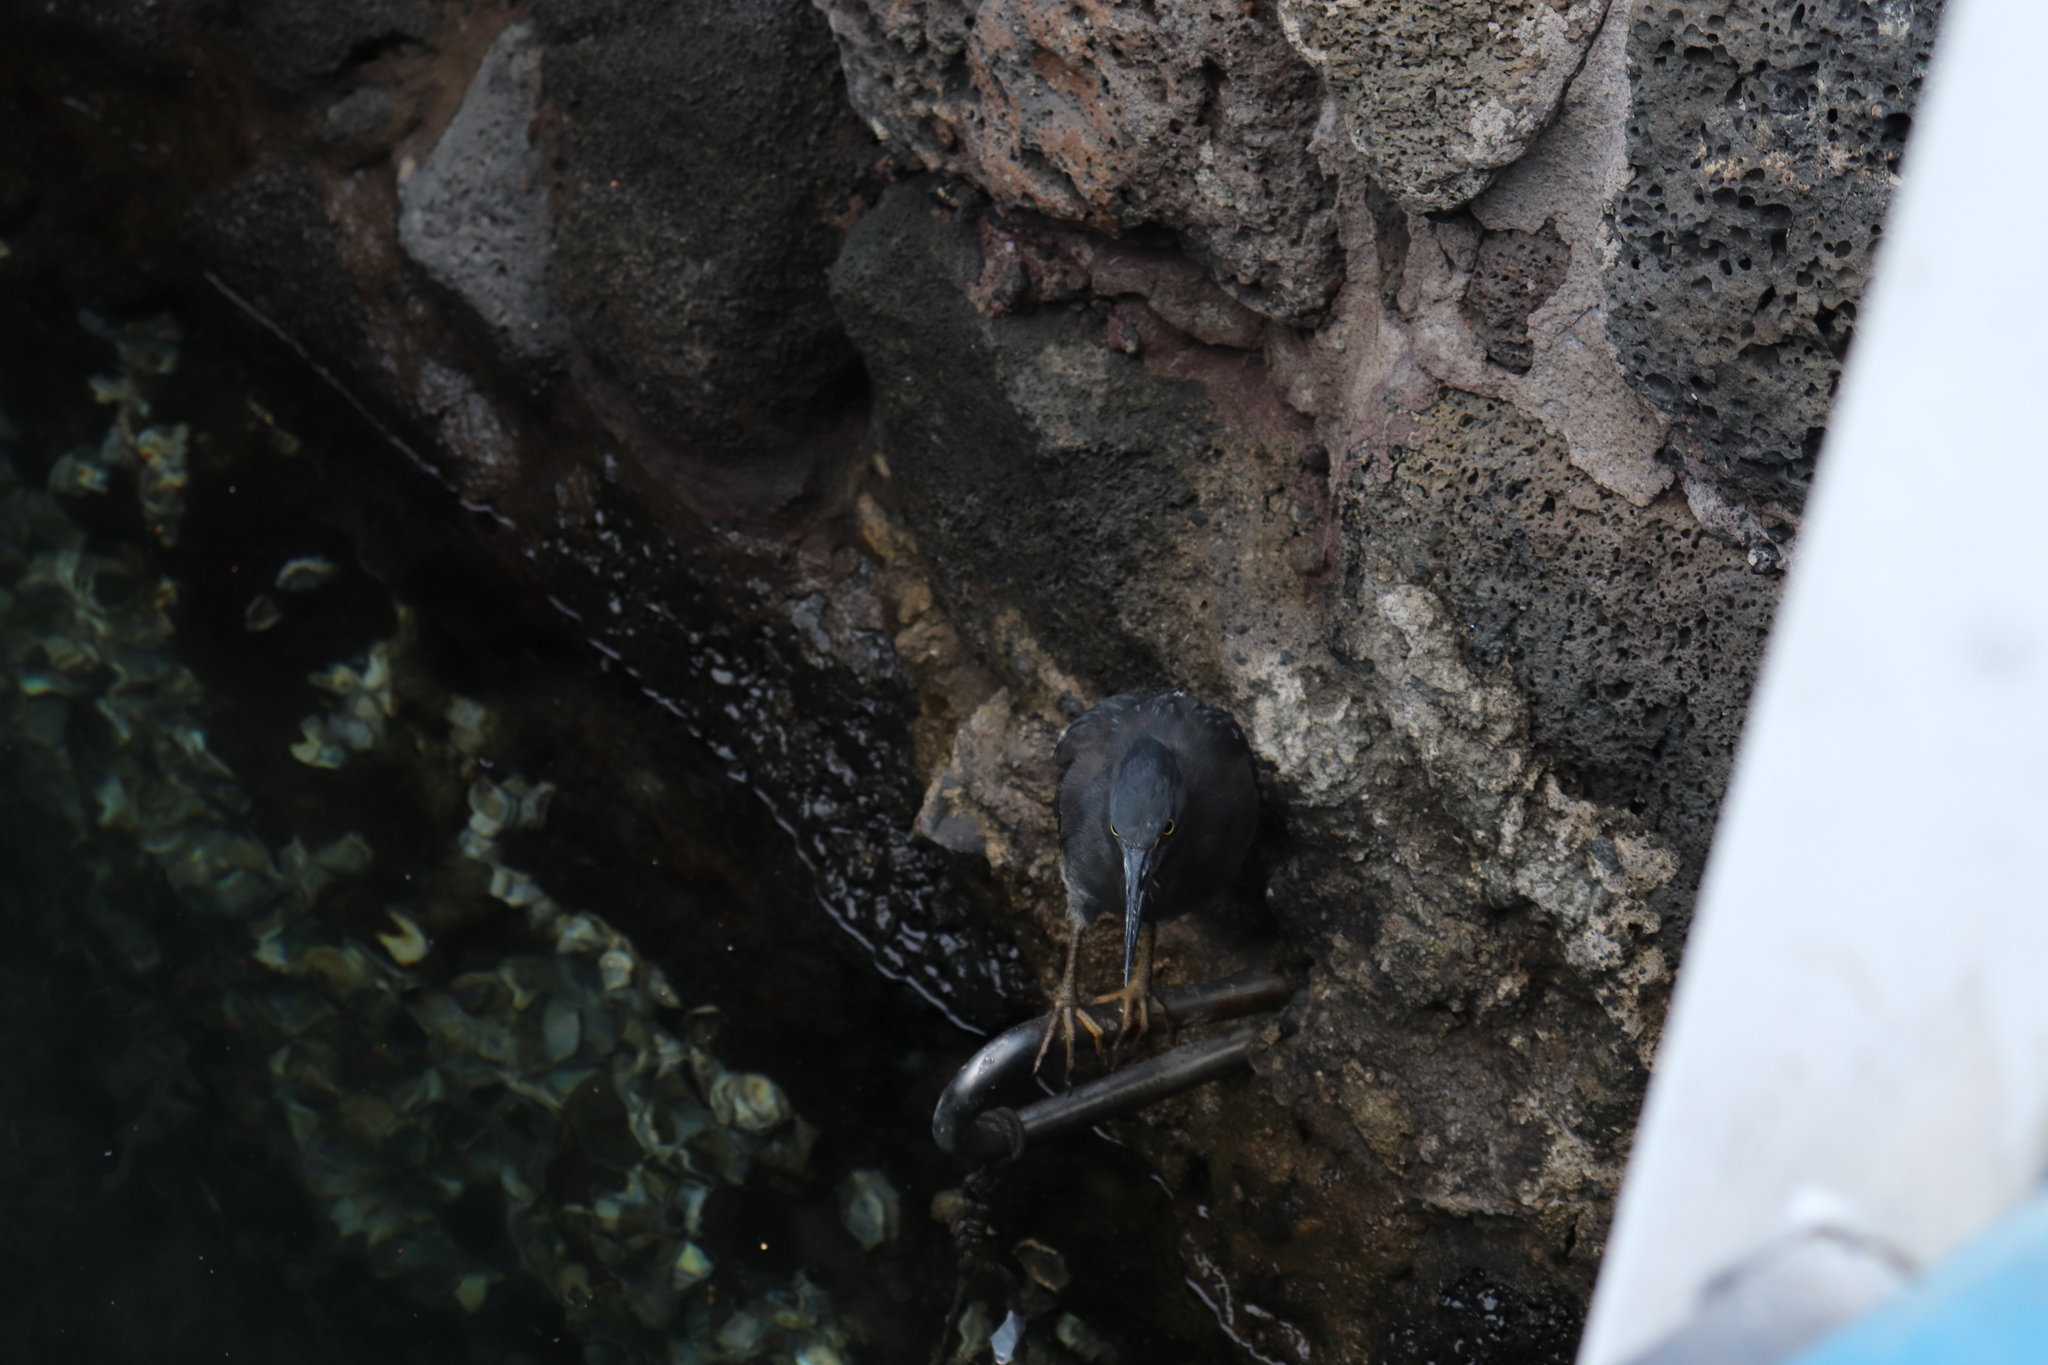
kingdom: Animalia
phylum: Chordata
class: Aves
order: Pelecaniformes
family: Ardeidae
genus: Butorides
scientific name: Butorides striata
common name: Striated heron
